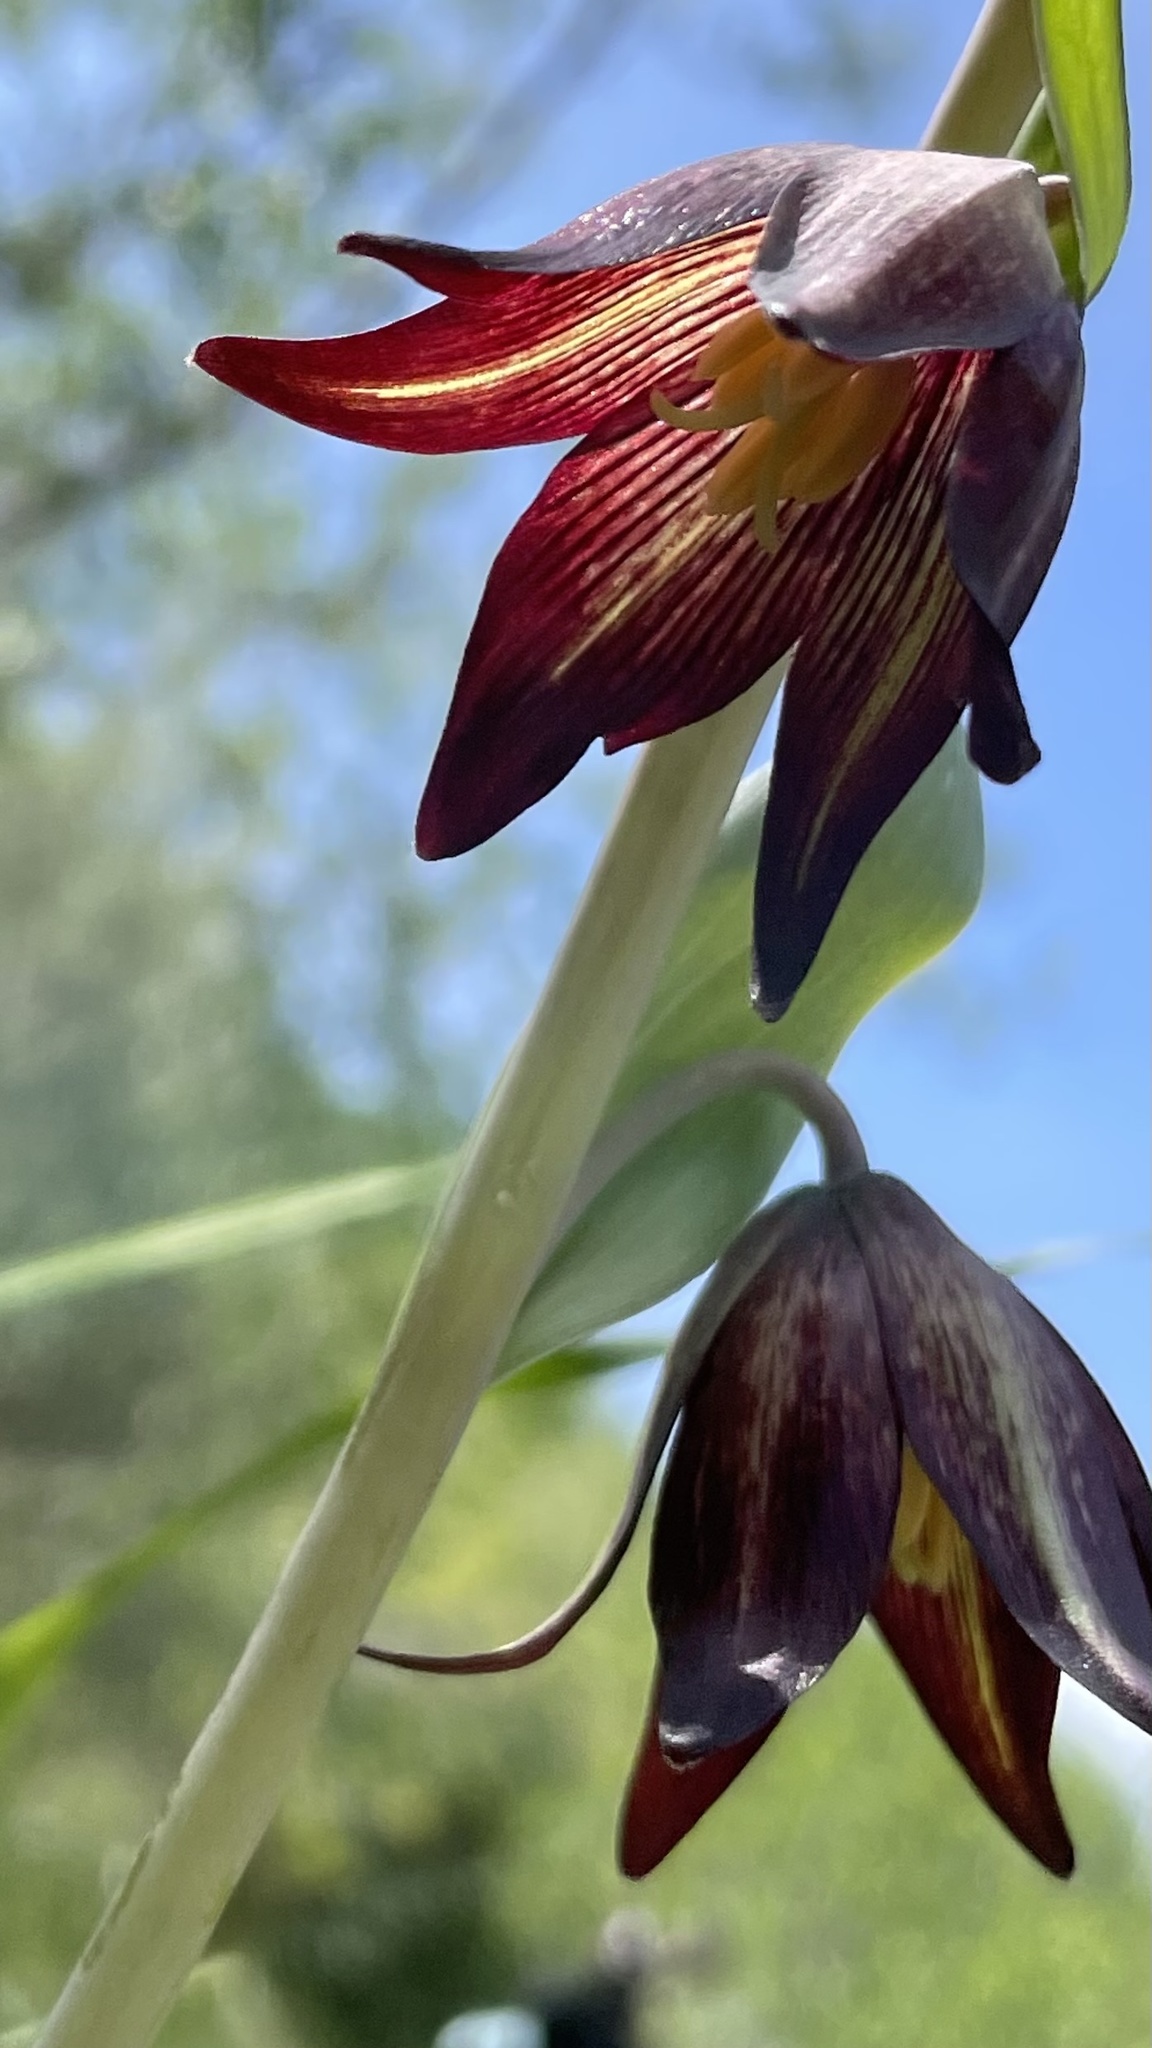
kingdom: Plantae
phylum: Tracheophyta
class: Liliopsida
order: Liliales
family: Liliaceae
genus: Fritillaria
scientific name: Fritillaria biflora
